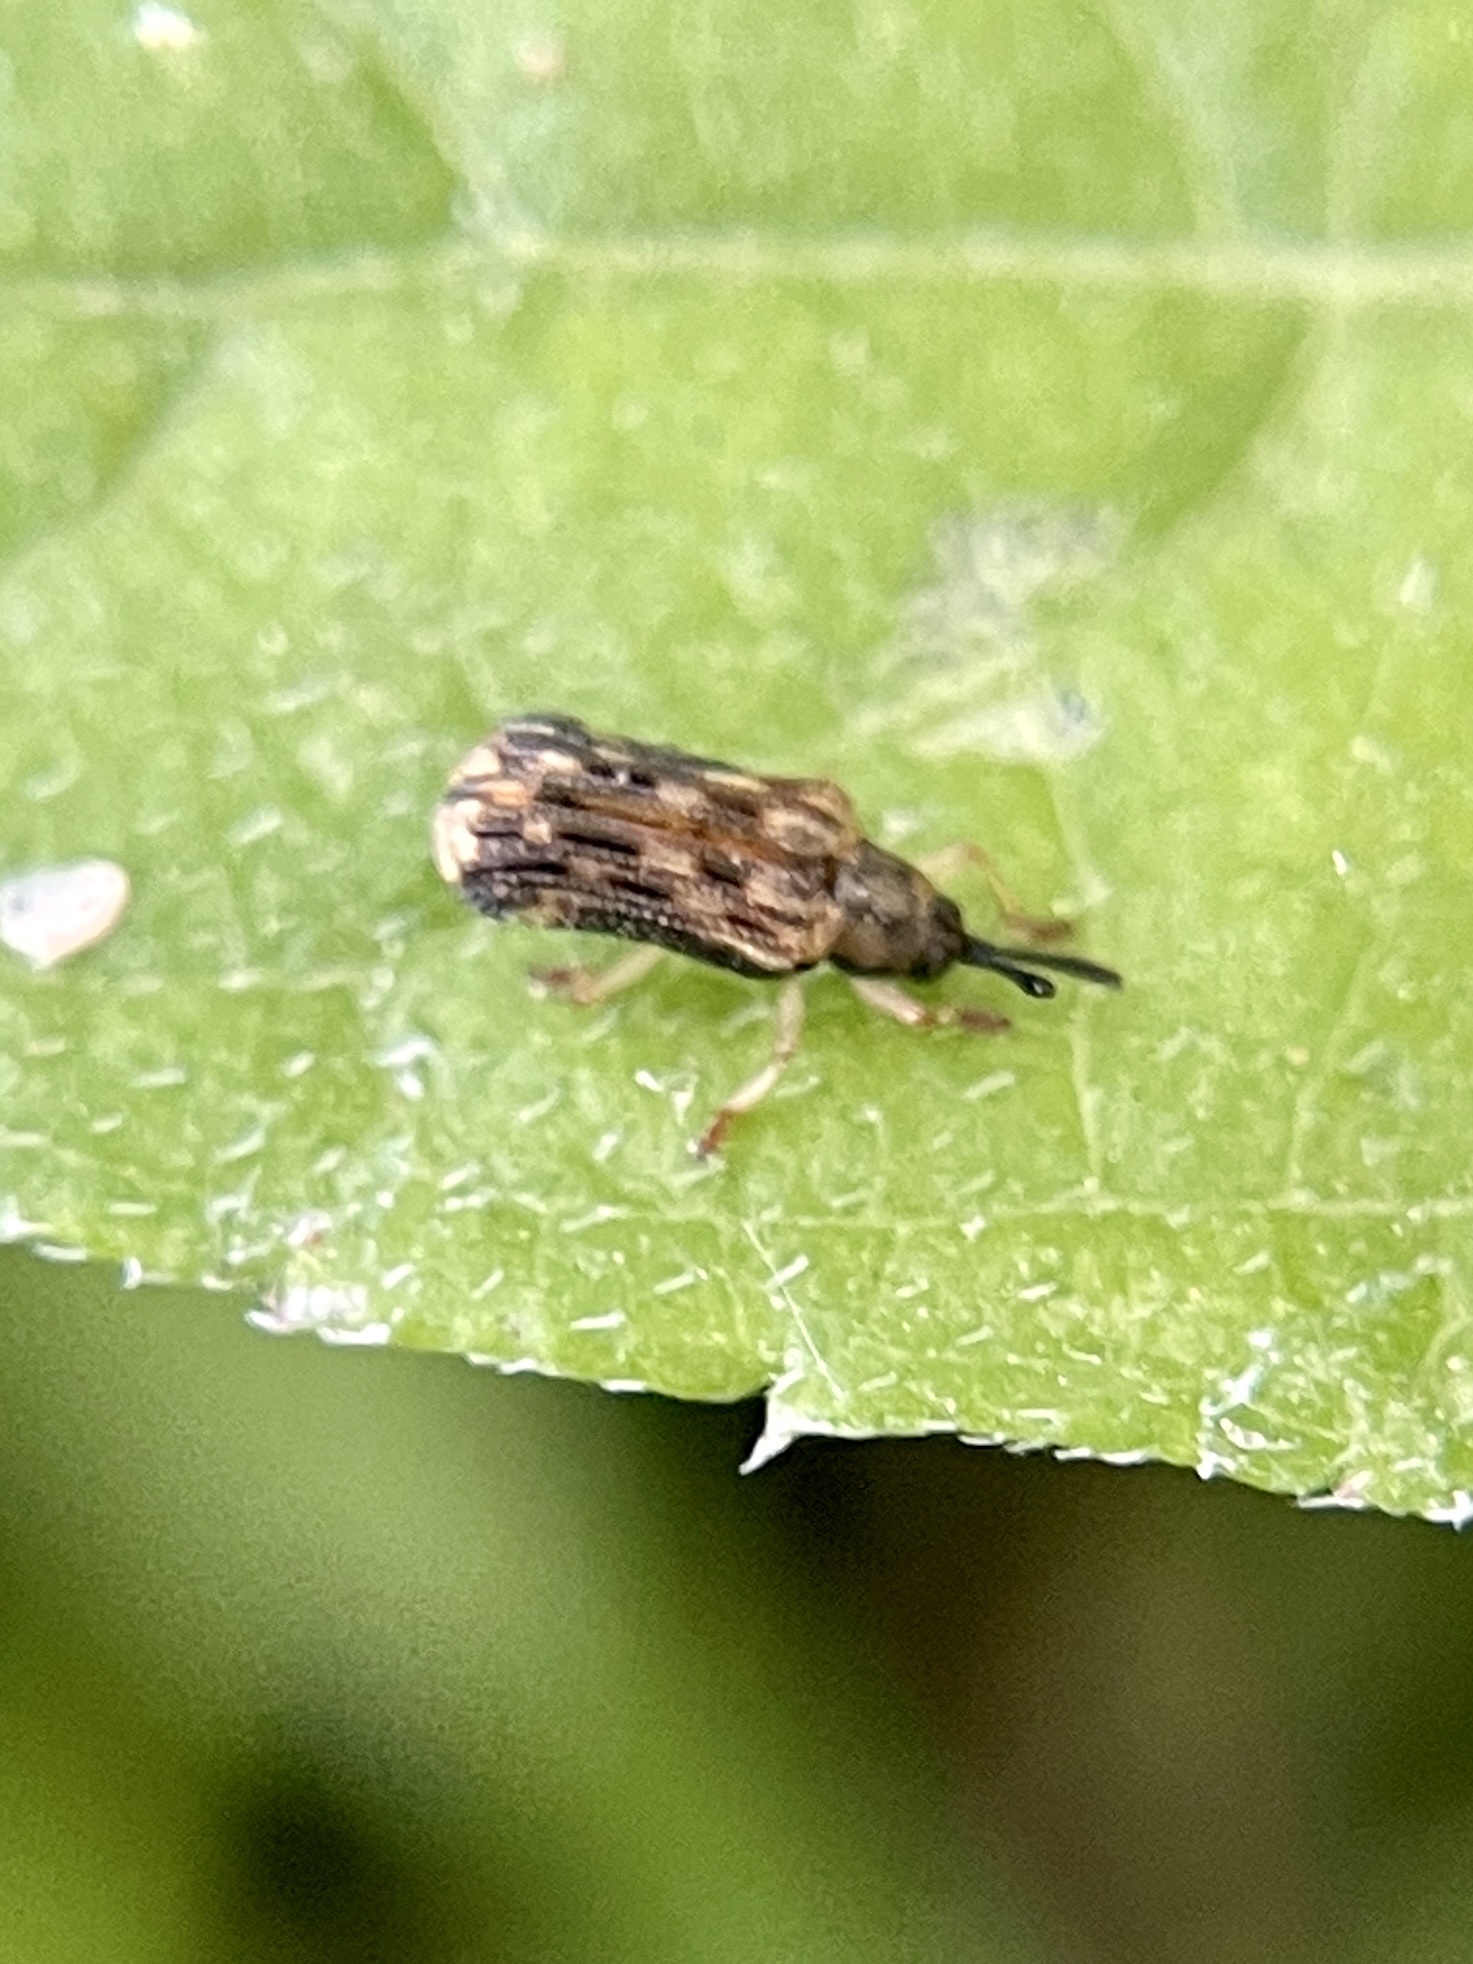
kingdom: Animalia
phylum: Arthropoda
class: Insecta
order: Coleoptera
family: Chrysomelidae
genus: Sumitrosis
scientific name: Sumitrosis inaequalis
